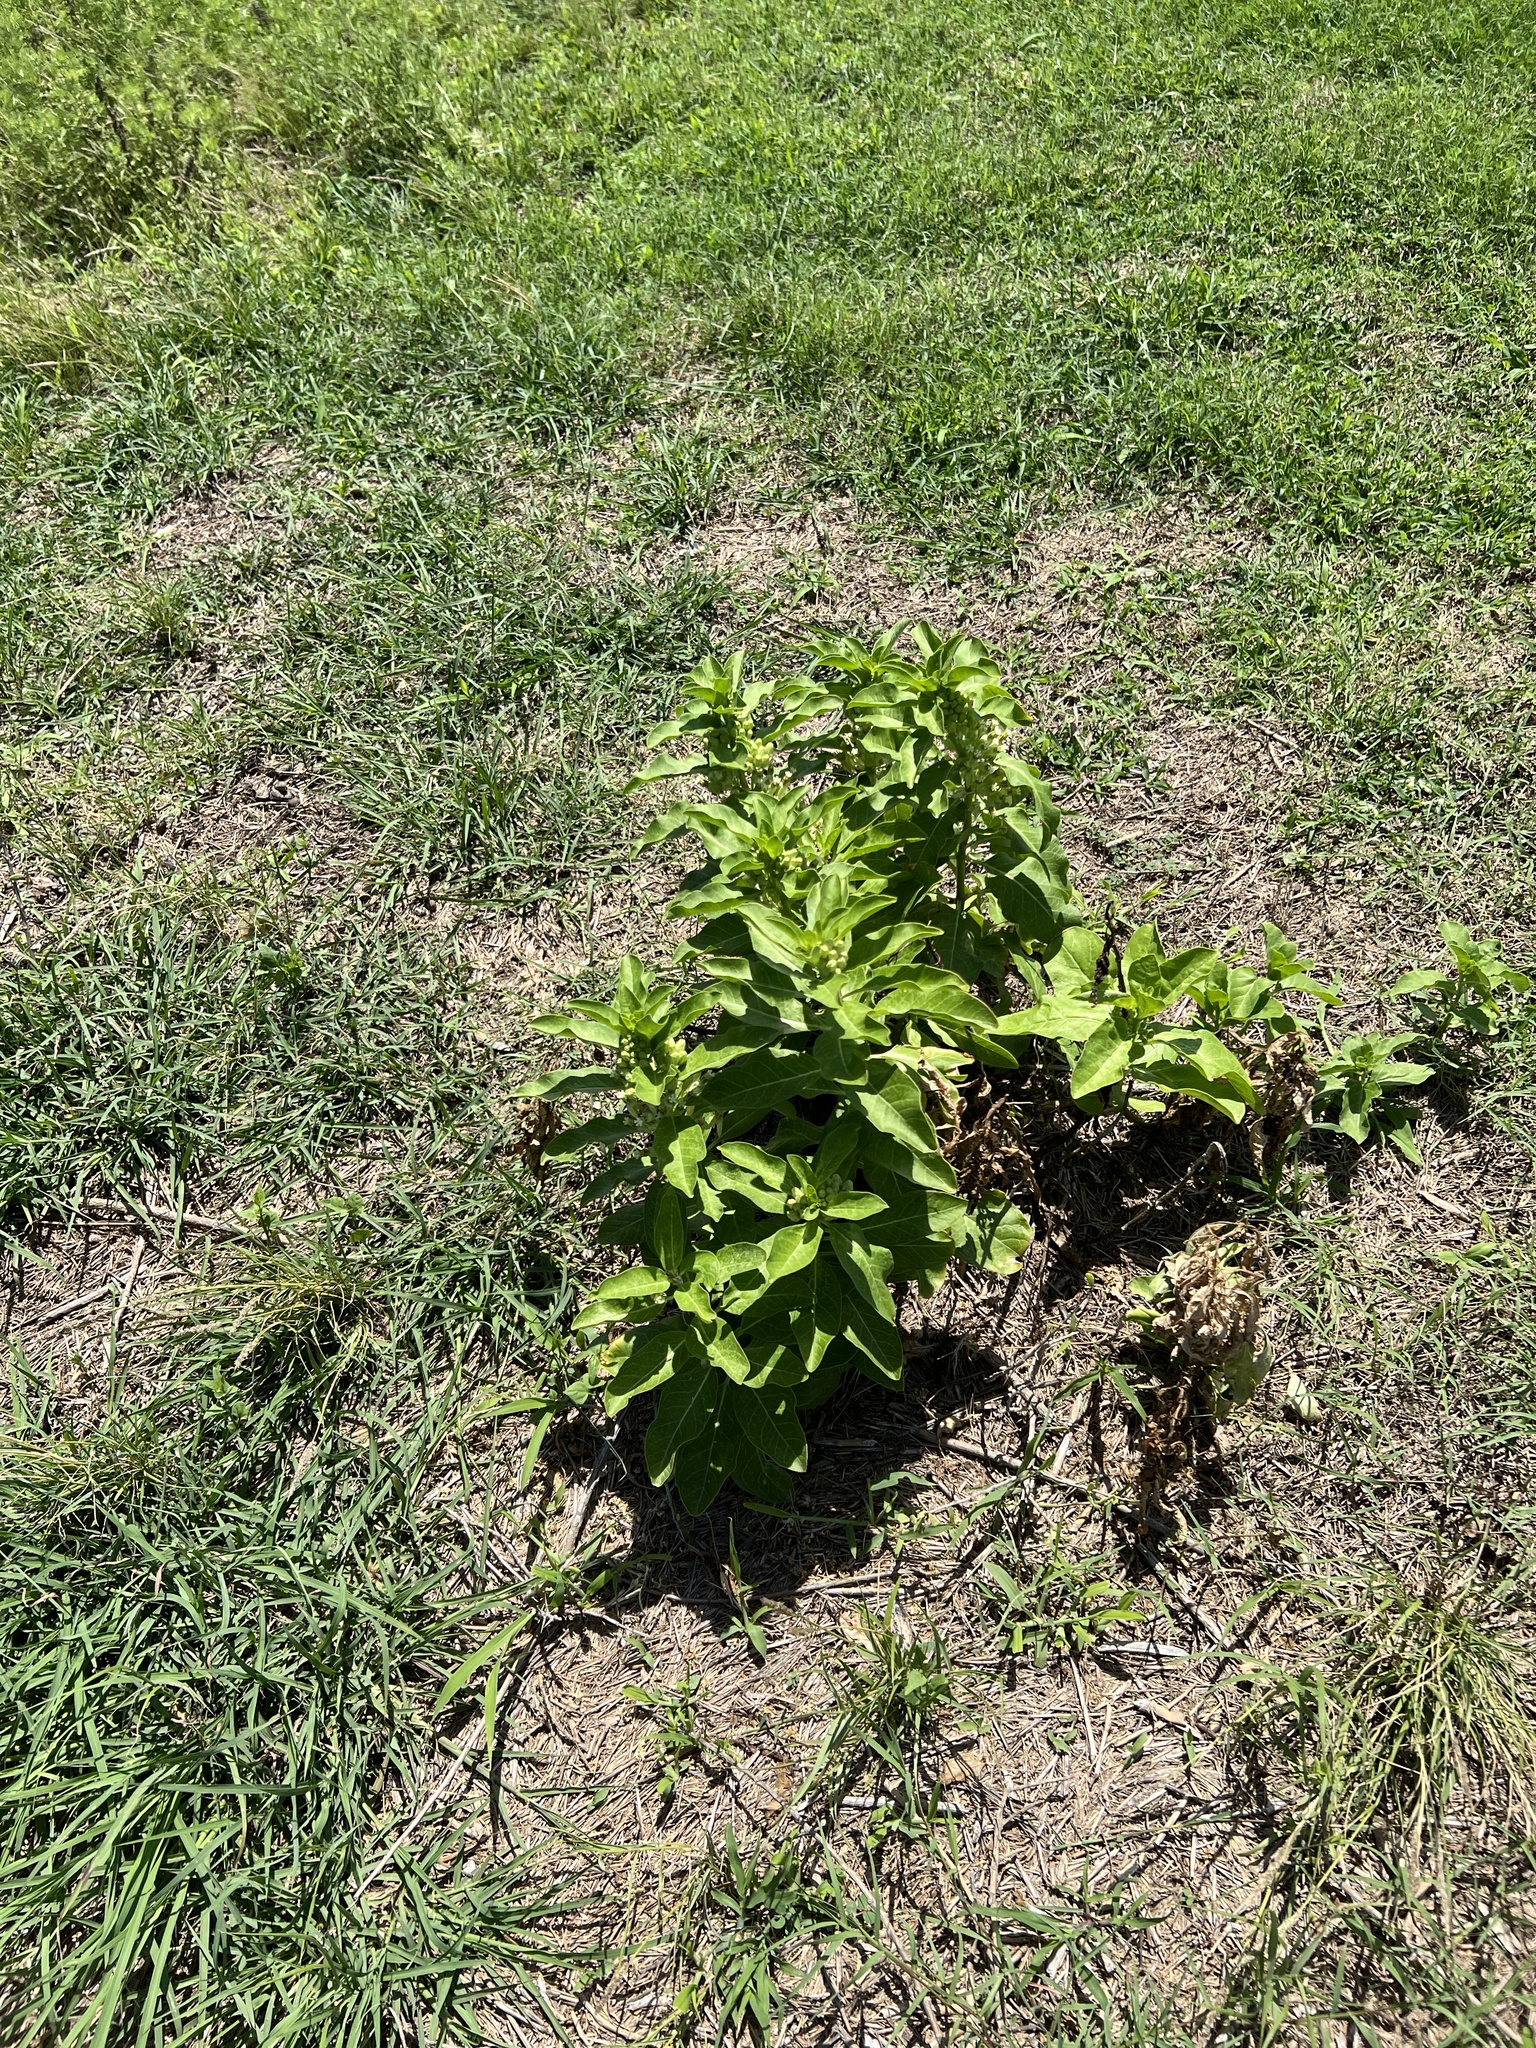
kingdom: Plantae
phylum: Tracheophyta
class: Magnoliopsida
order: Gentianales
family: Apocynaceae
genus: Asclepias
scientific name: Asclepias oenotheroides
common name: Zizotes milkweed
